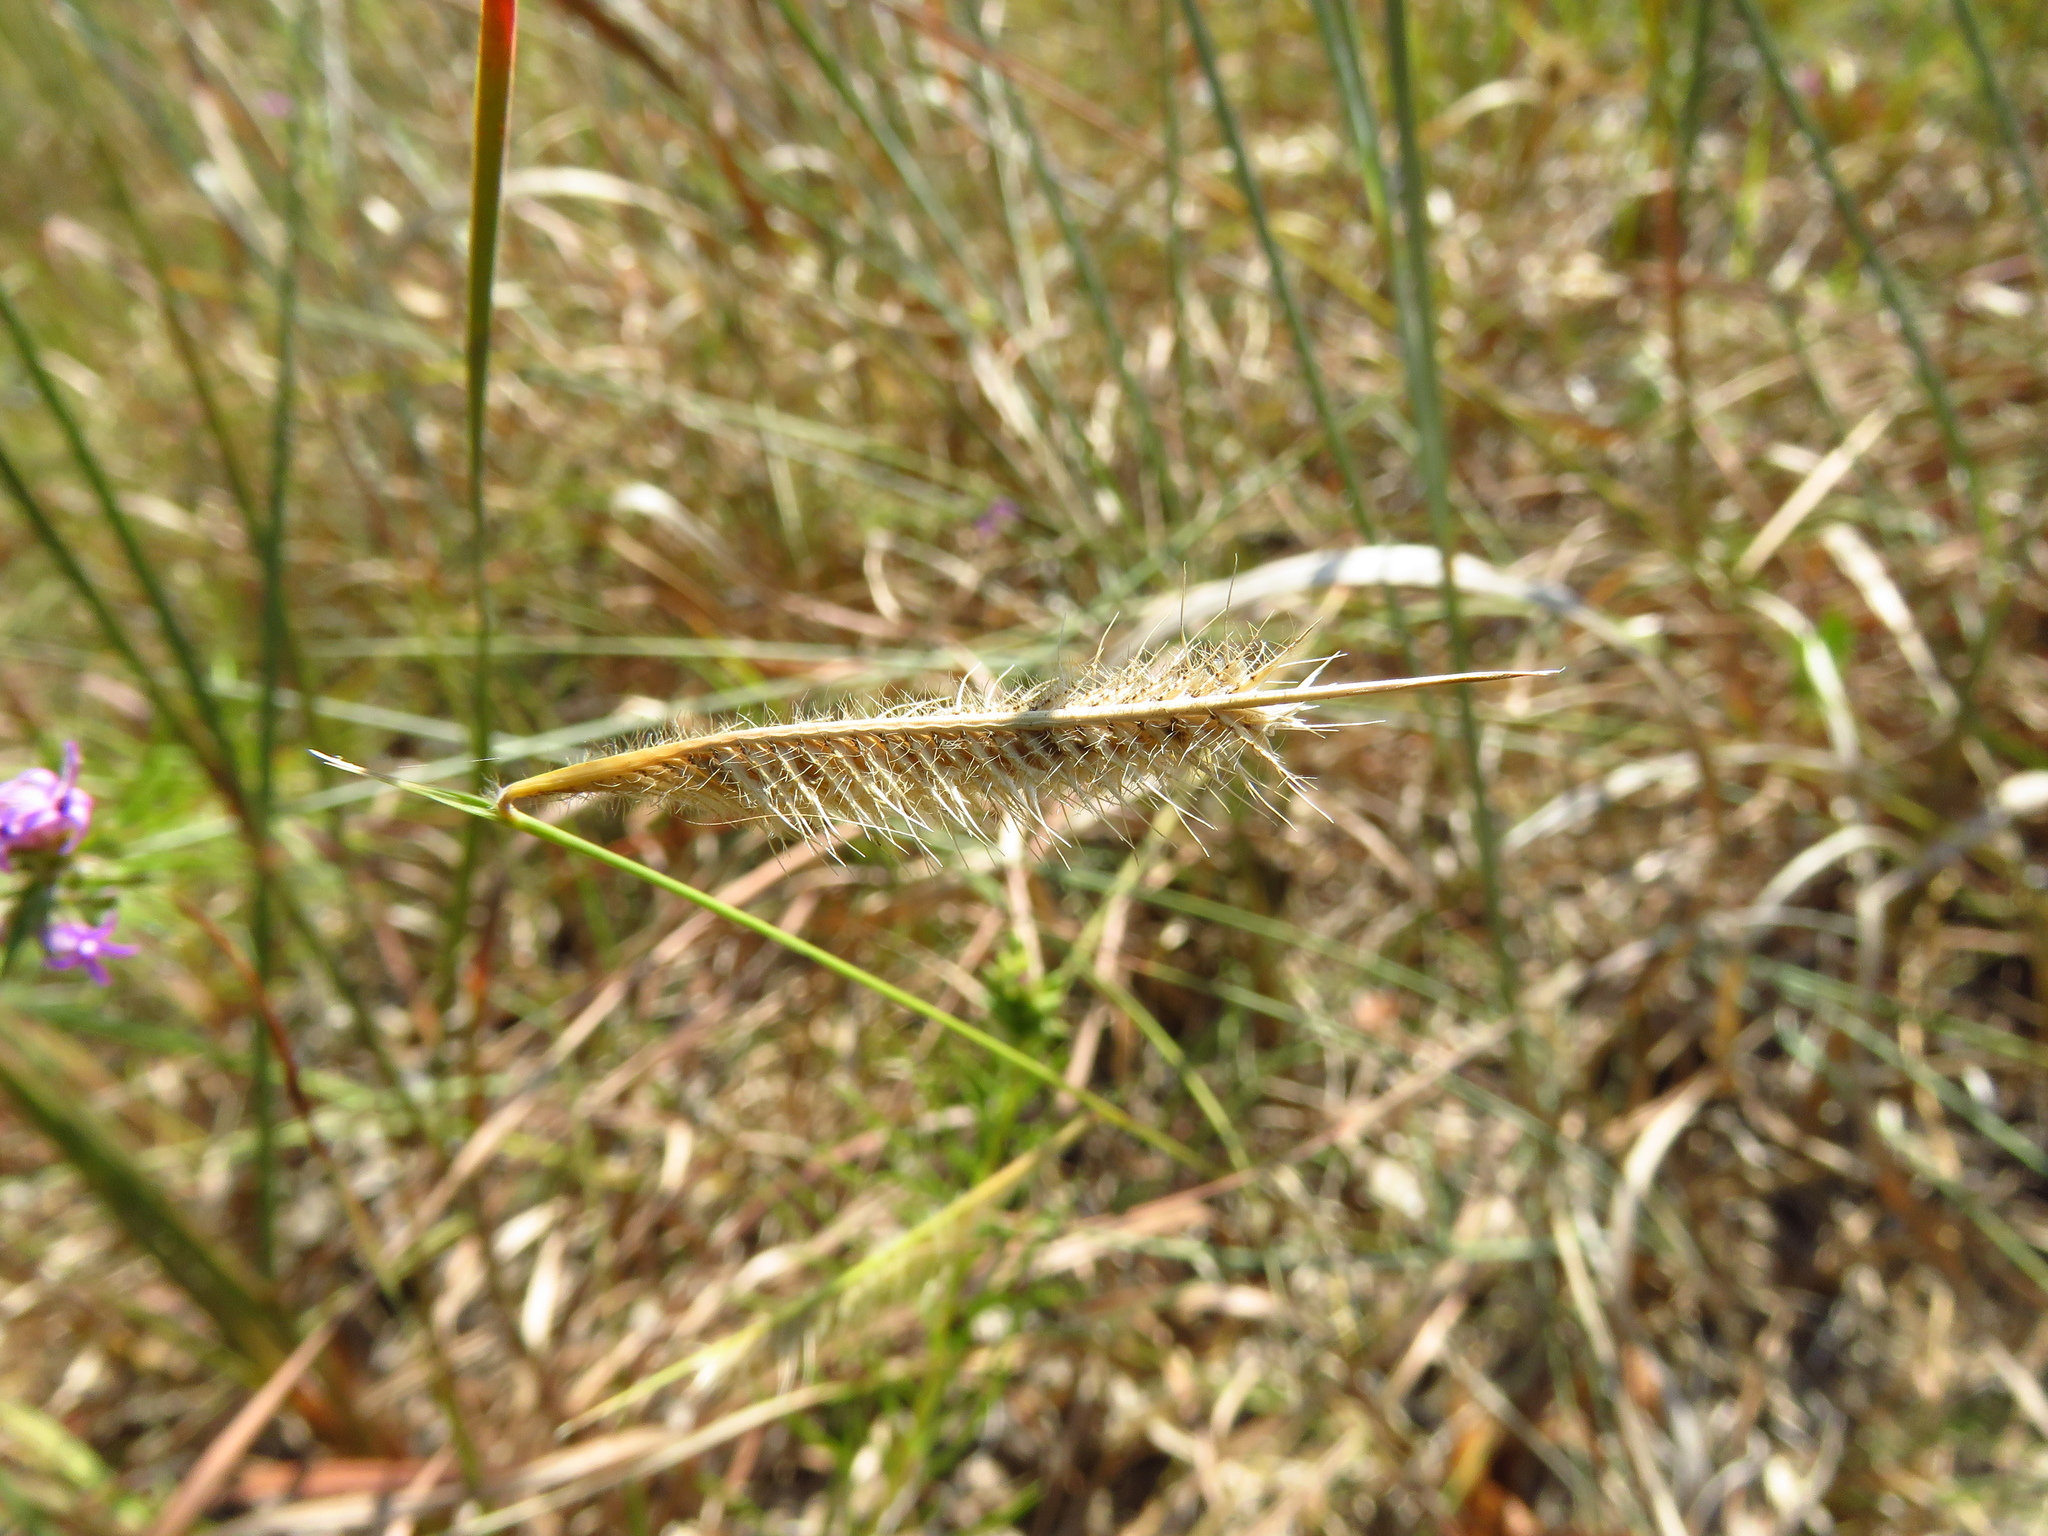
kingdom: Plantae
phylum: Tracheophyta
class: Liliopsida
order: Poales
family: Poaceae
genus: Bouteloua
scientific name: Bouteloua hirsuta
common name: Hairy grama
